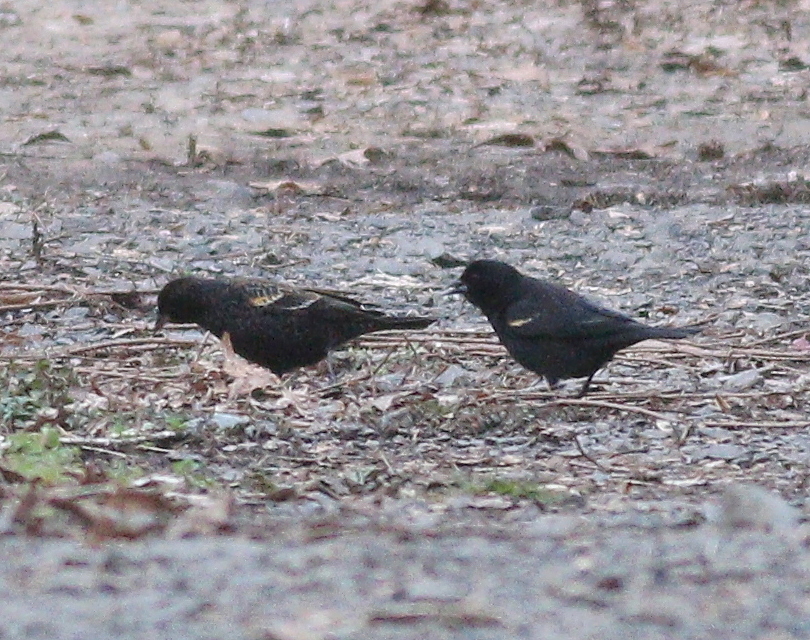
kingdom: Animalia
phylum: Chordata
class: Aves
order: Passeriformes
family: Icteridae
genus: Agelaius
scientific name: Agelaius phoeniceus
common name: Red-winged blackbird
